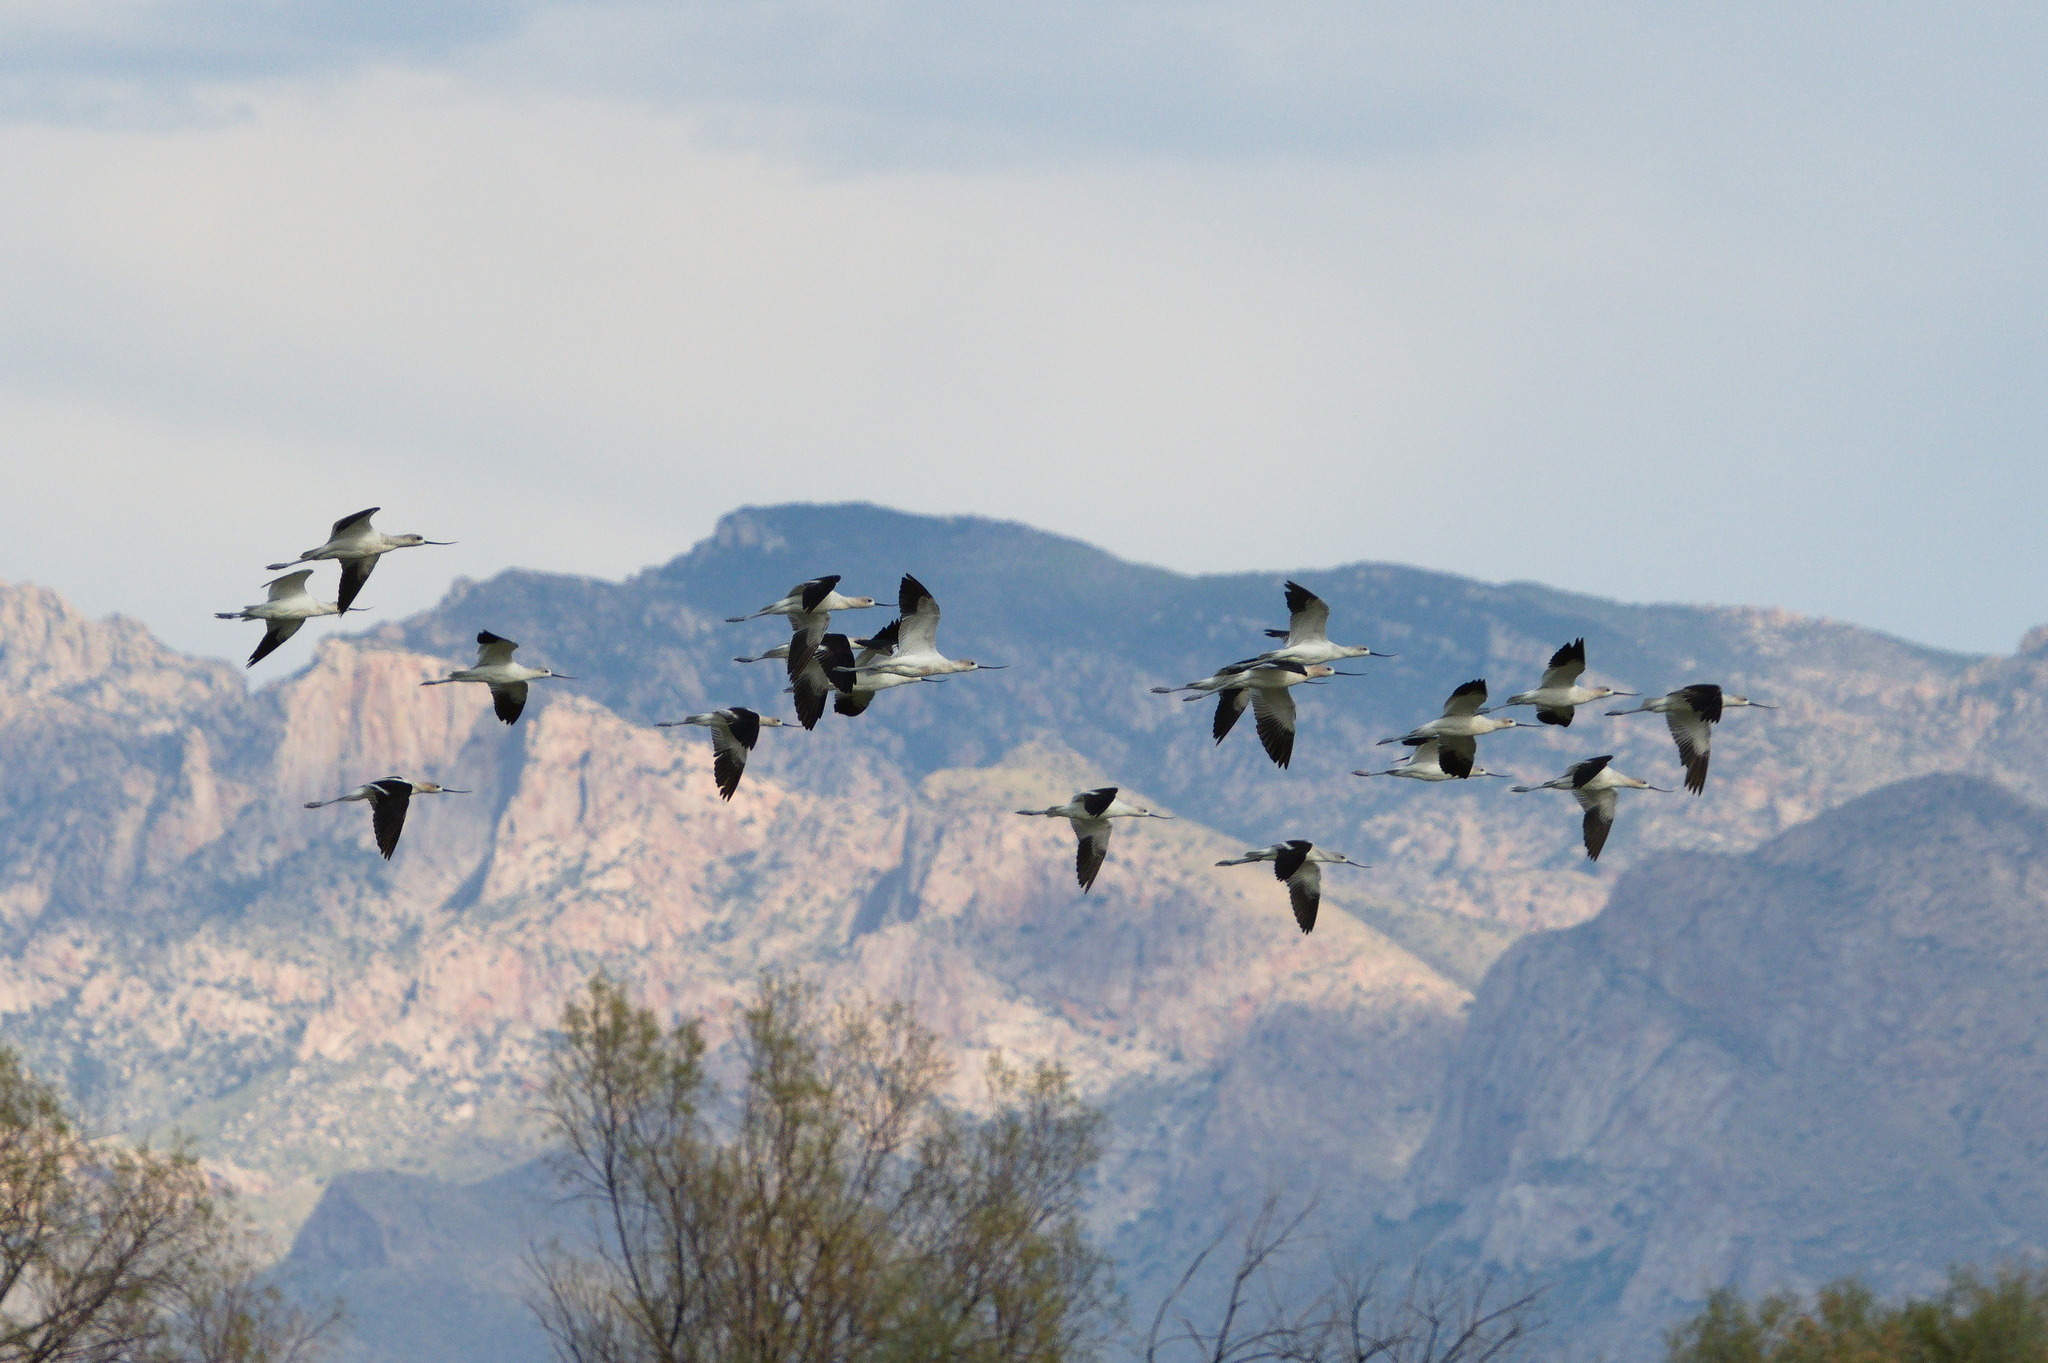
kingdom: Animalia
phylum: Chordata
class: Aves
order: Charadriiformes
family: Recurvirostridae
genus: Recurvirostra
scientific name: Recurvirostra americana
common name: American avocet
